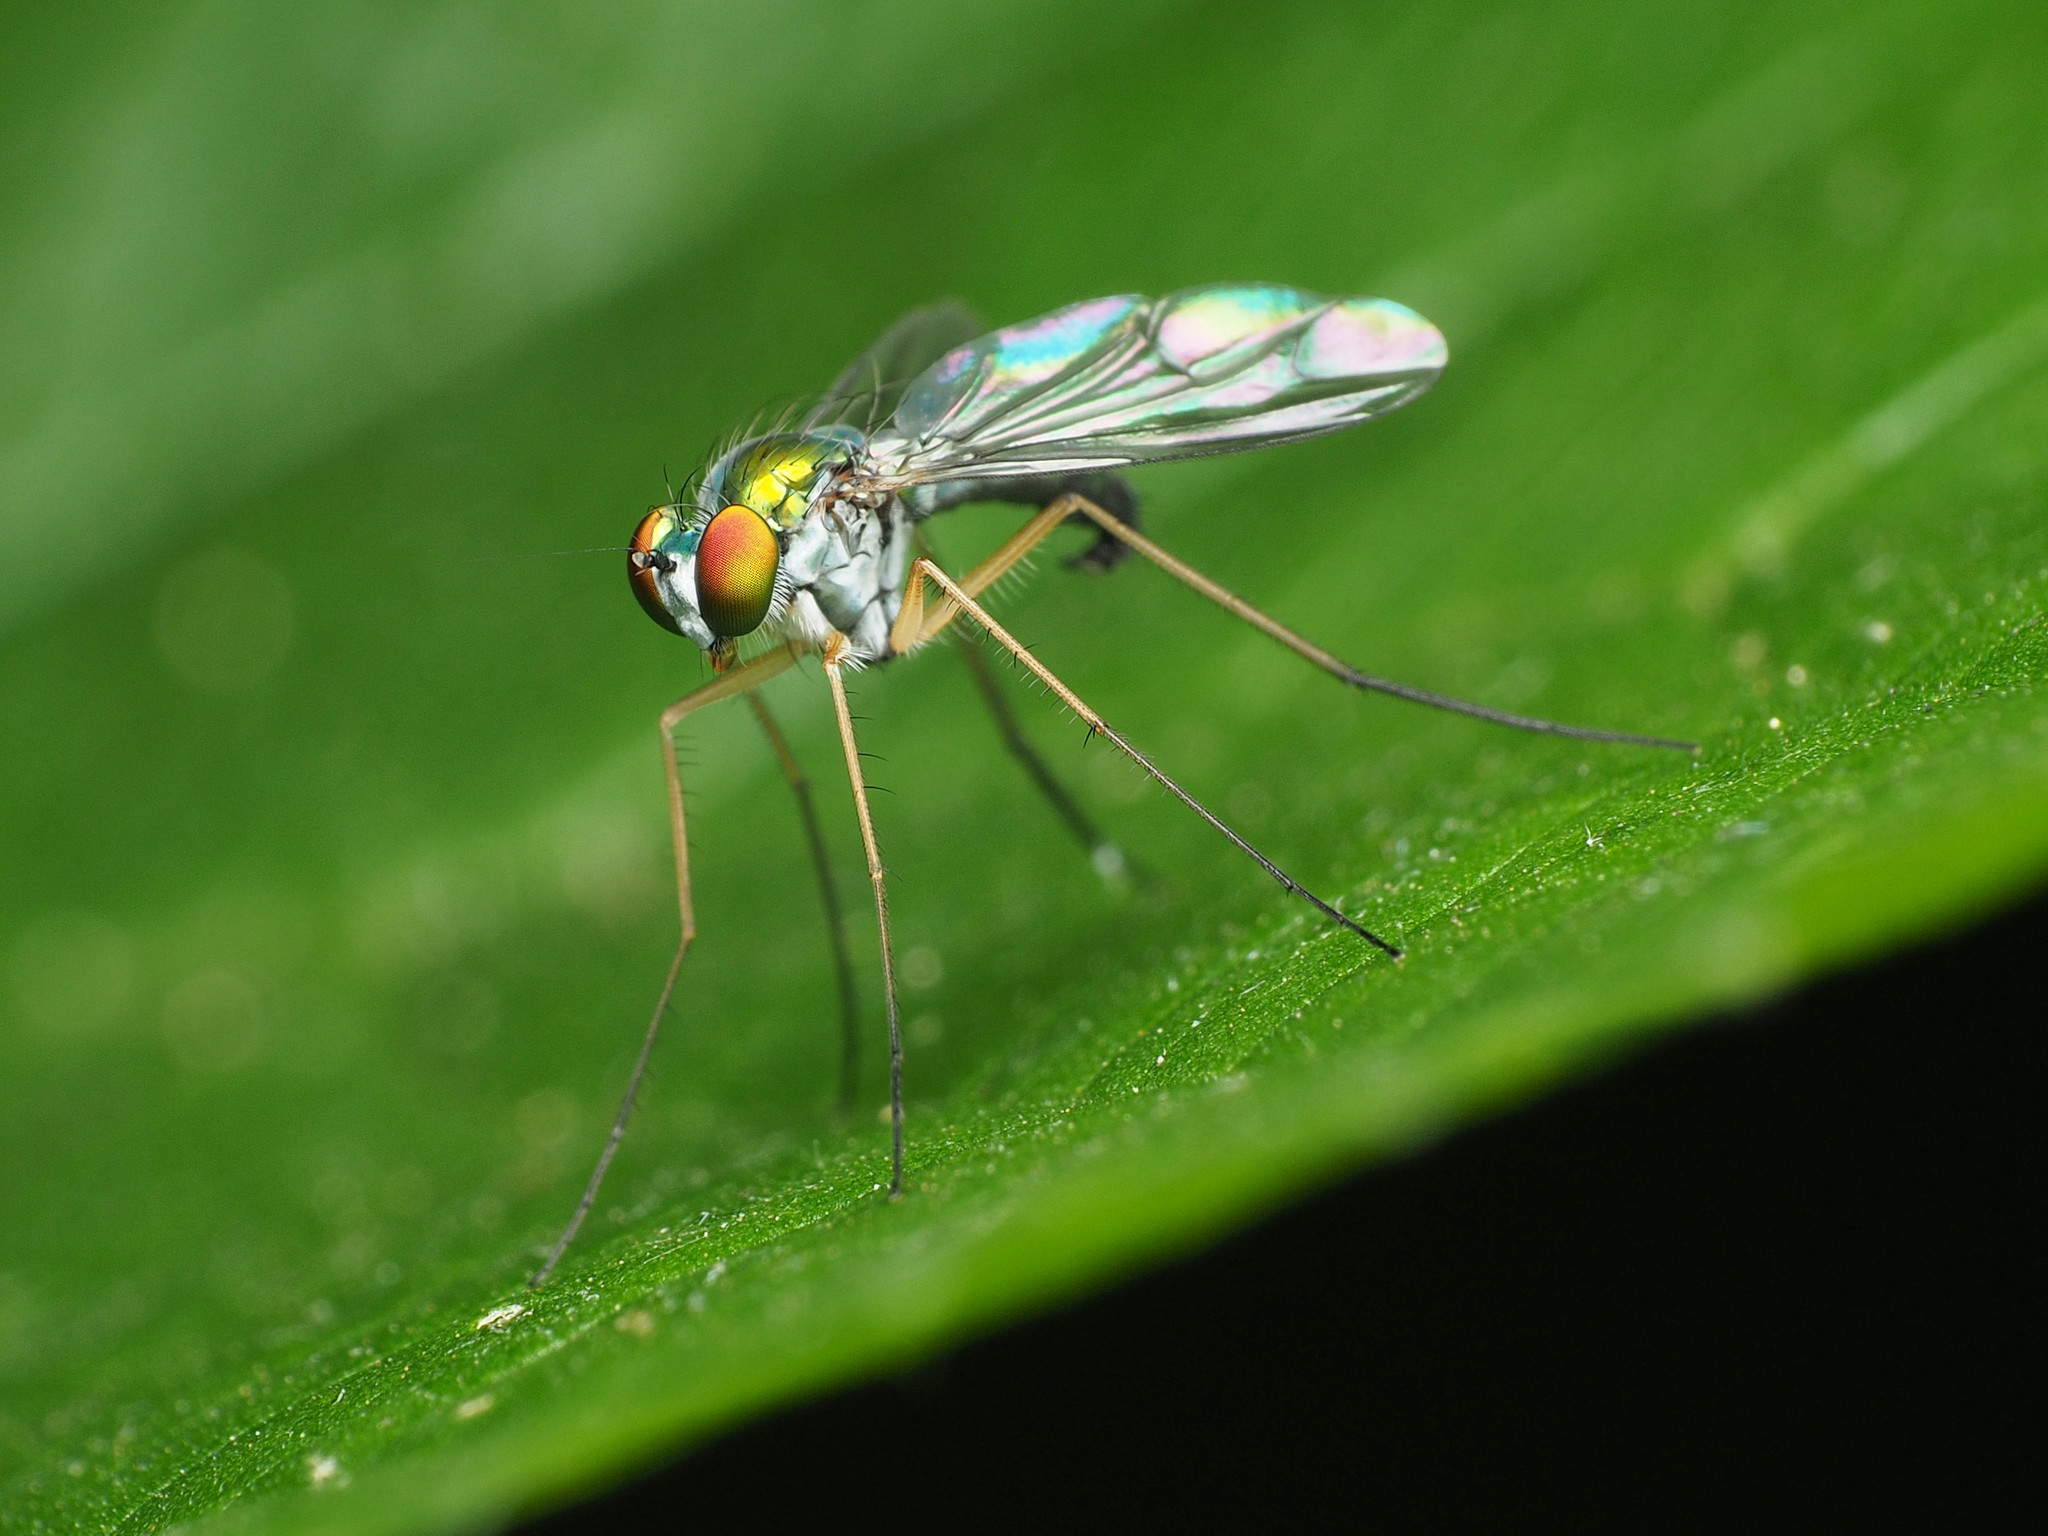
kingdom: Animalia
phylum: Arthropoda
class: Insecta
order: Diptera
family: Dolichopodidae
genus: Condylostylus
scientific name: Condylostylus
